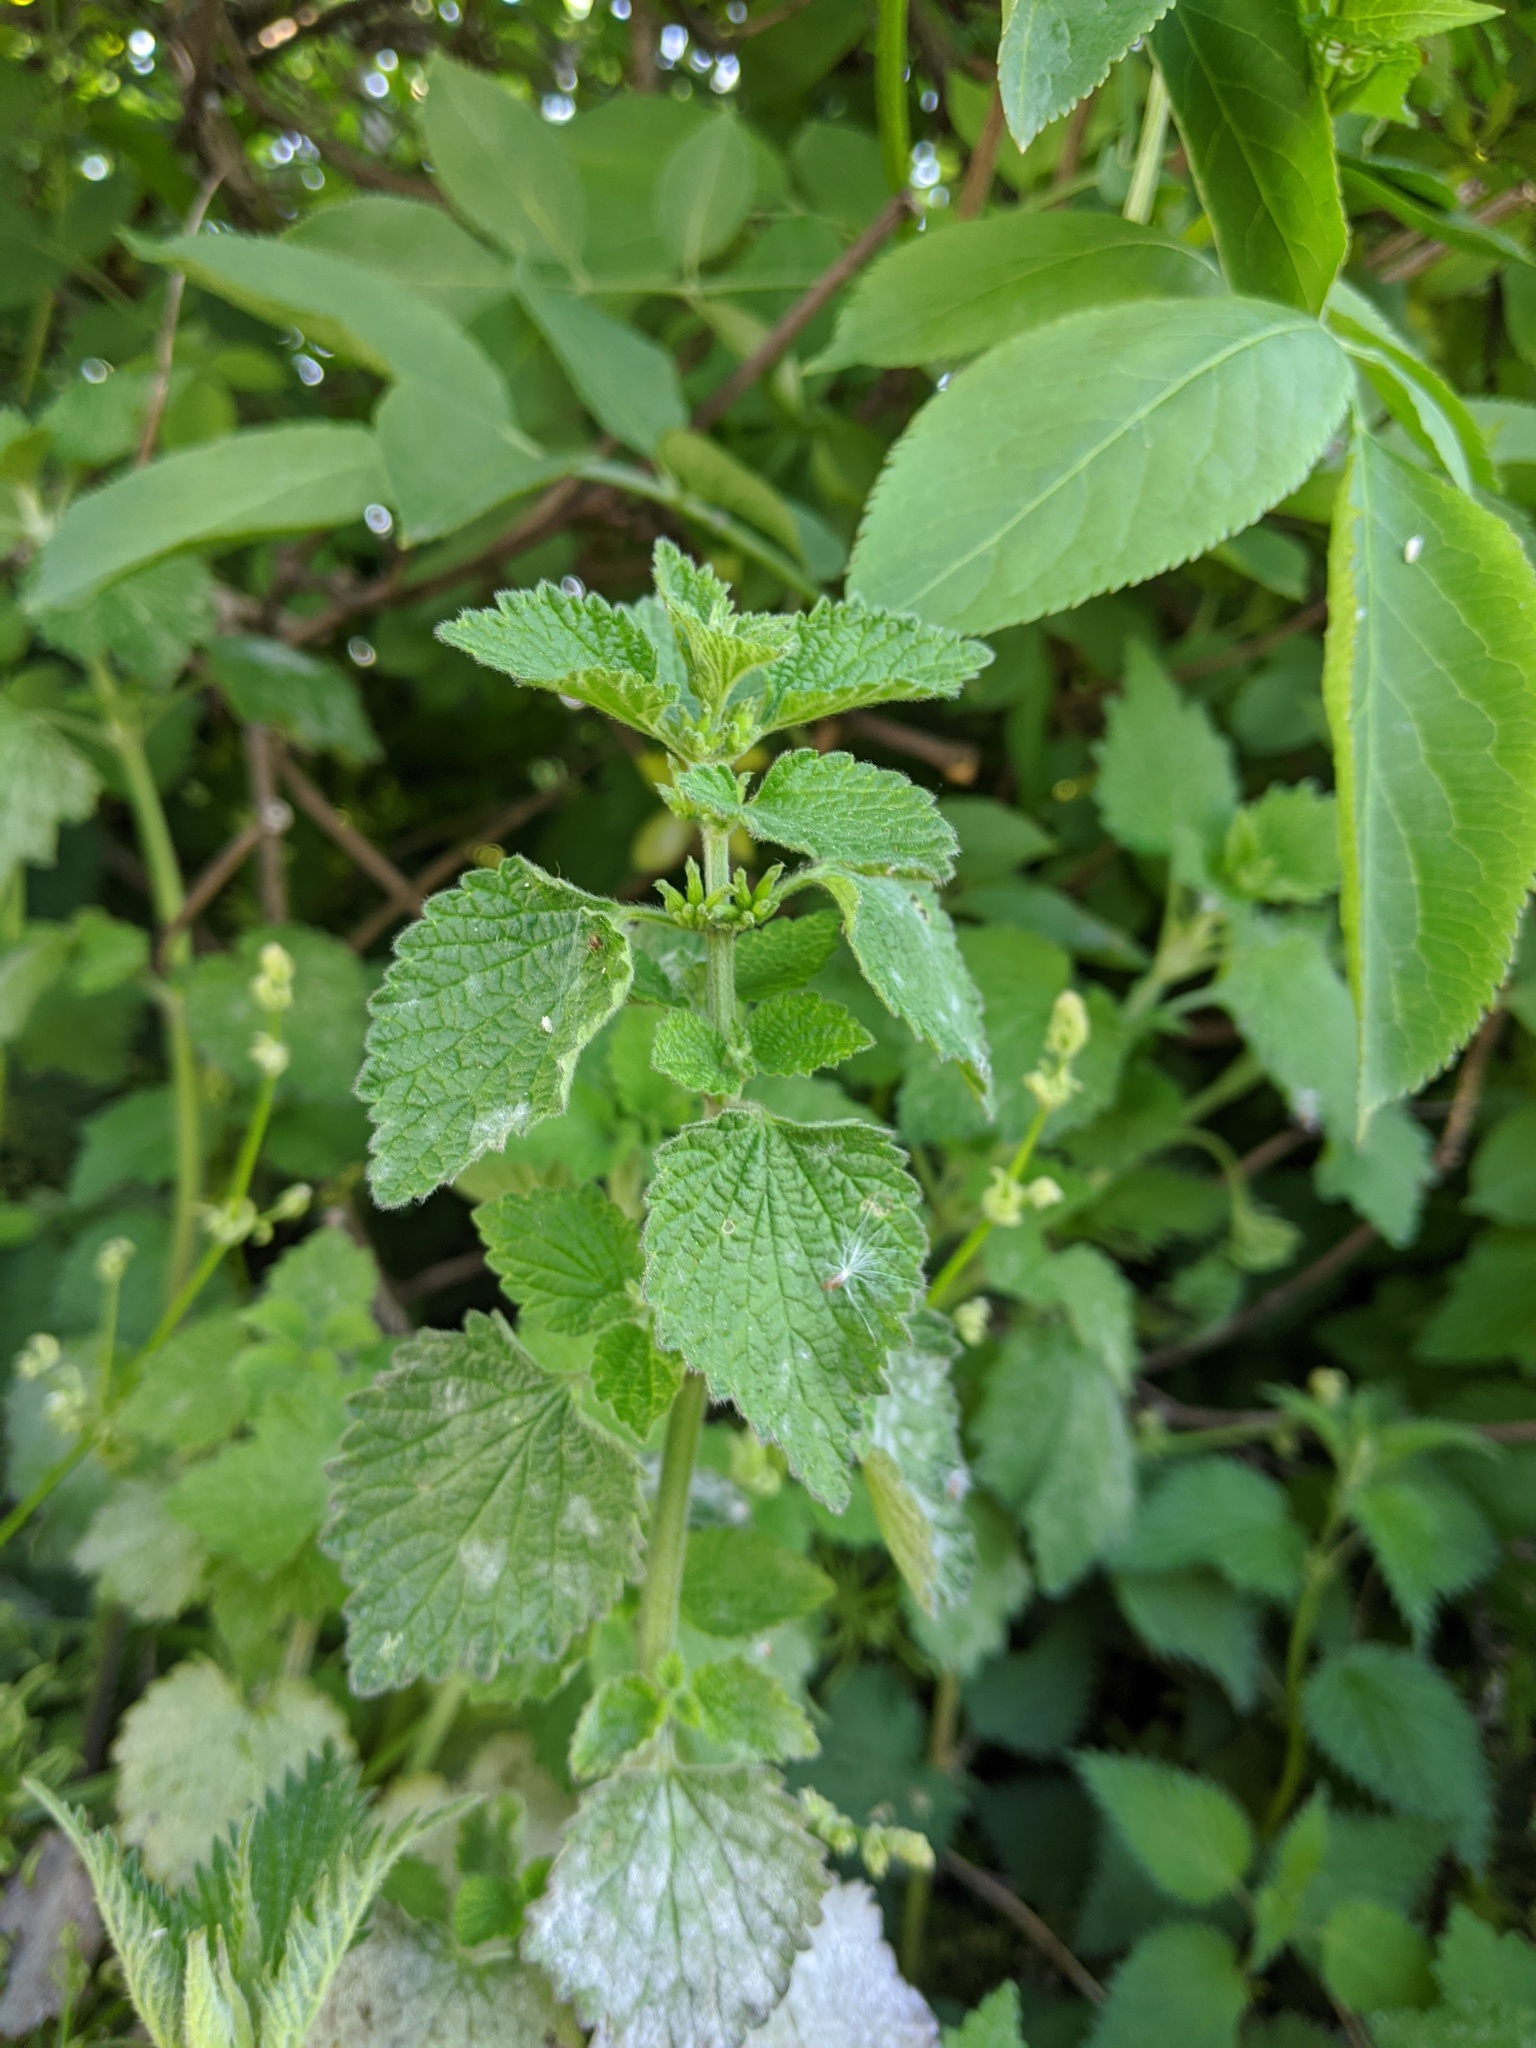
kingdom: Plantae
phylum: Tracheophyta
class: Magnoliopsida
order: Lamiales
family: Lamiaceae
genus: Ballota
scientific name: Ballota nigra
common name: Black horehound
